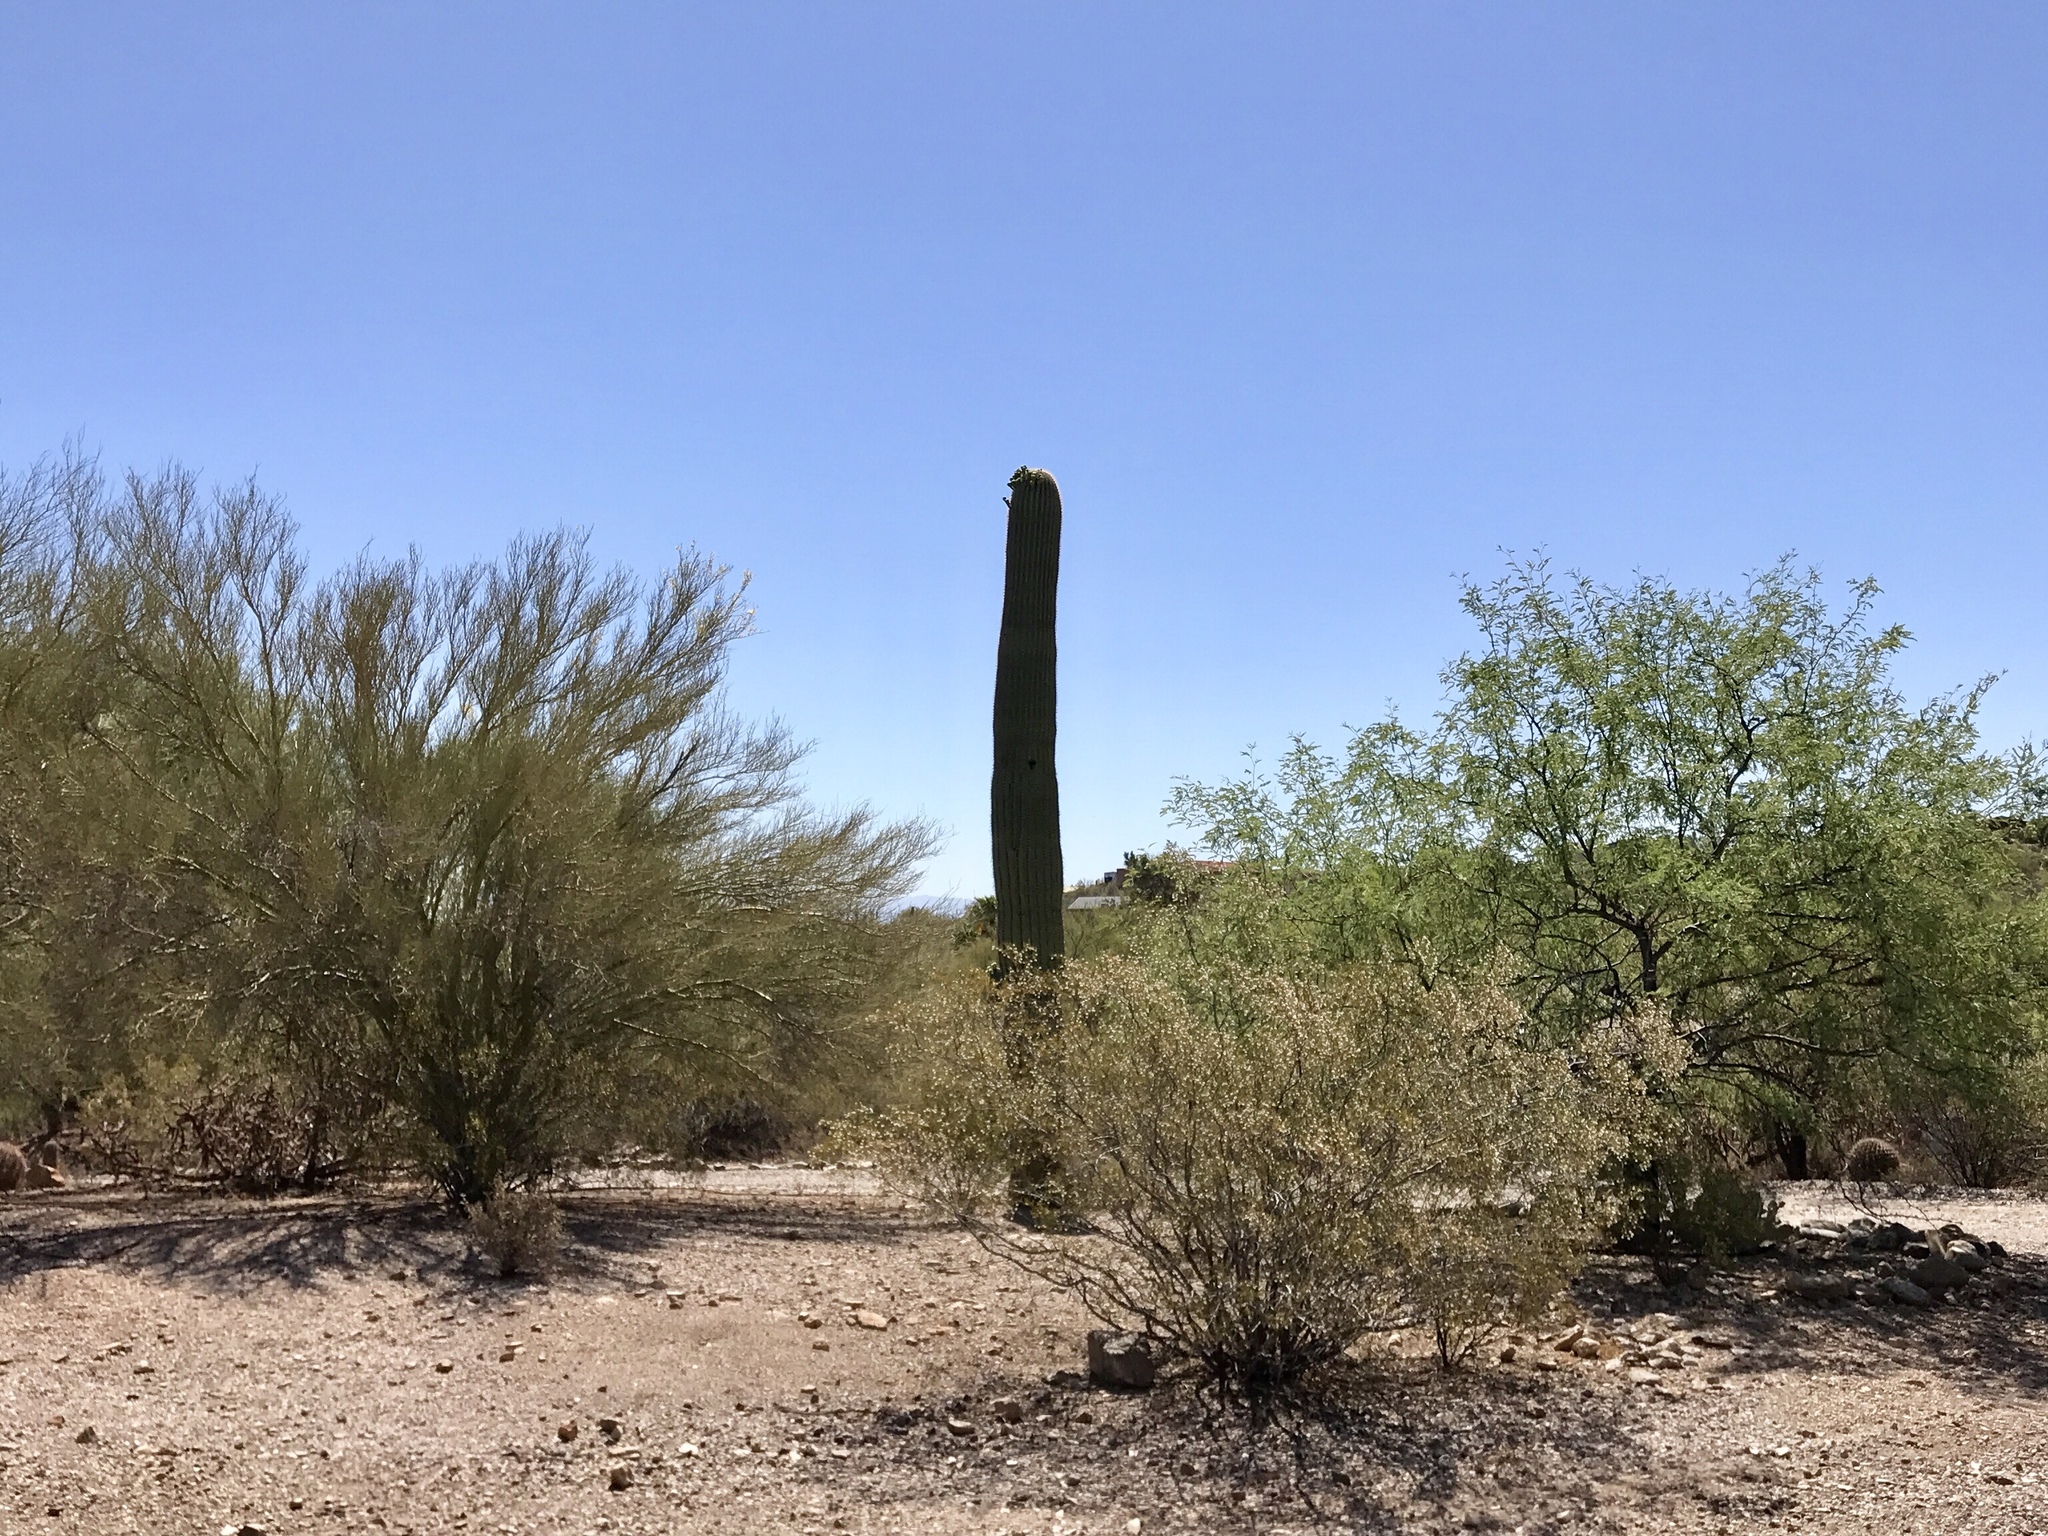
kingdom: Plantae
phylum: Tracheophyta
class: Magnoliopsida
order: Zygophyllales
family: Zygophyllaceae
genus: Larrea
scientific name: Larrea tridentata
